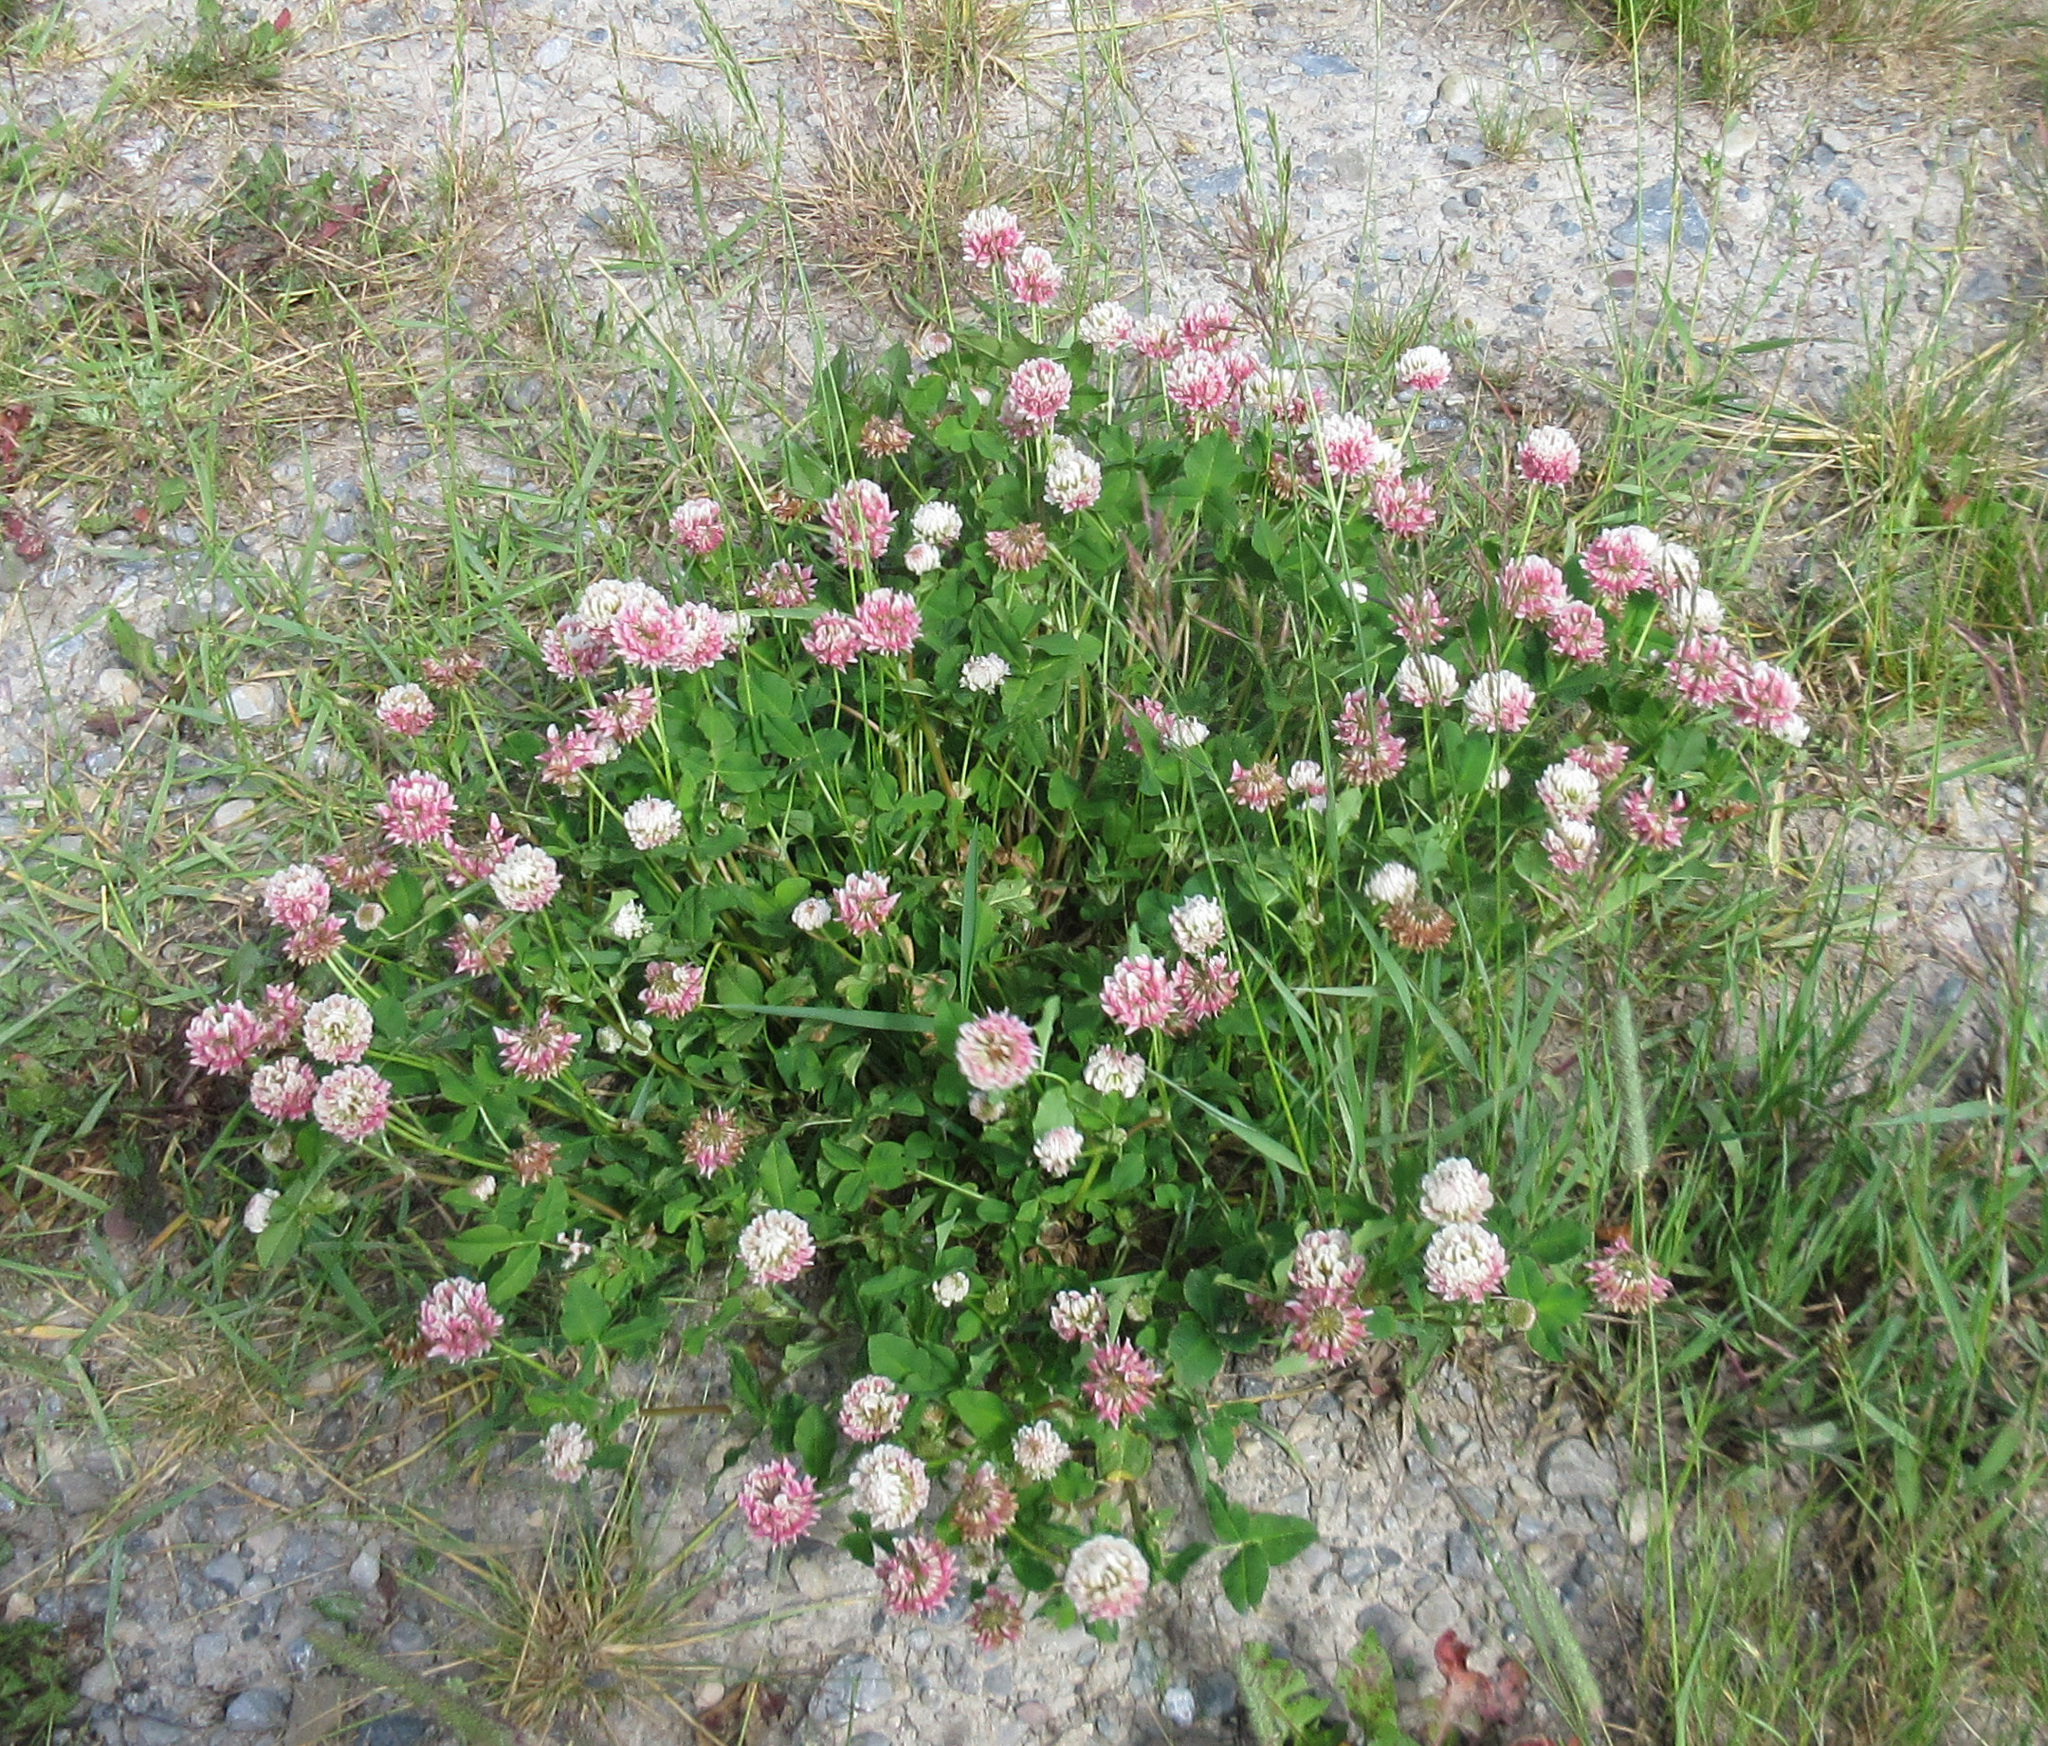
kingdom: Plantae
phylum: Tracheophyta
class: Magnoliopsida
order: Fabales
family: Fabaceae
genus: Trifolium
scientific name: Trifolium hybridum
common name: Alsike clover
